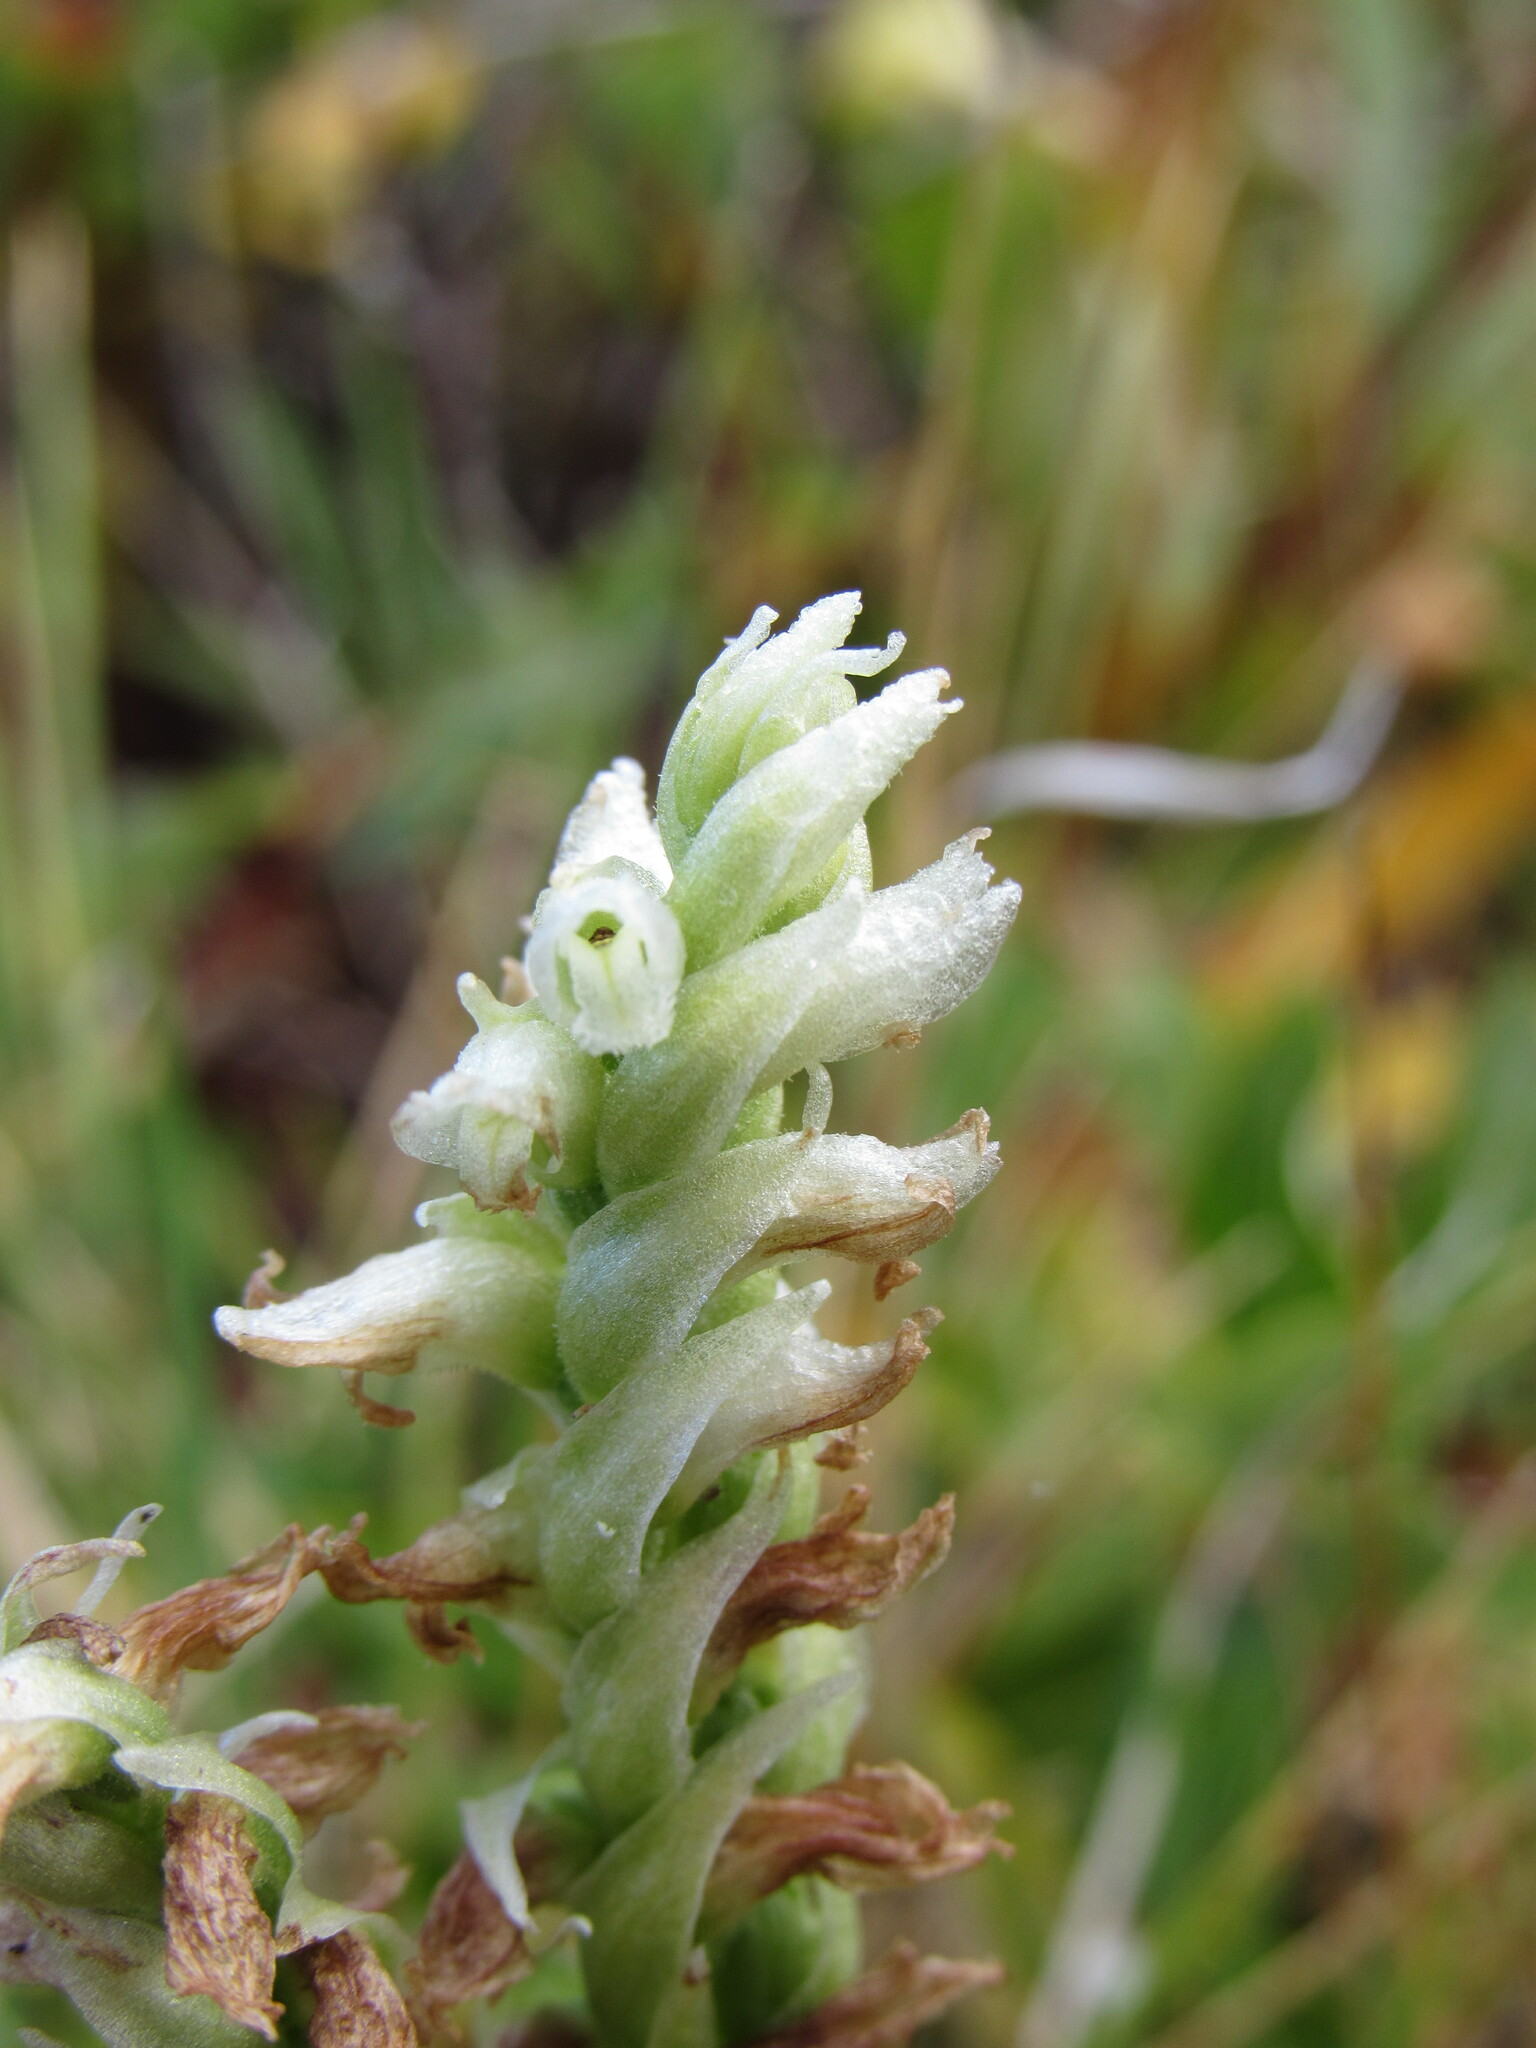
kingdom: Plantae
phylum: Tracheophyta
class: Liliopsida
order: Asparagales
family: Orchidaceae
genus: Spiranthes
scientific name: Spiranthes romanzoffiana
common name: Irish lady's-tresses
